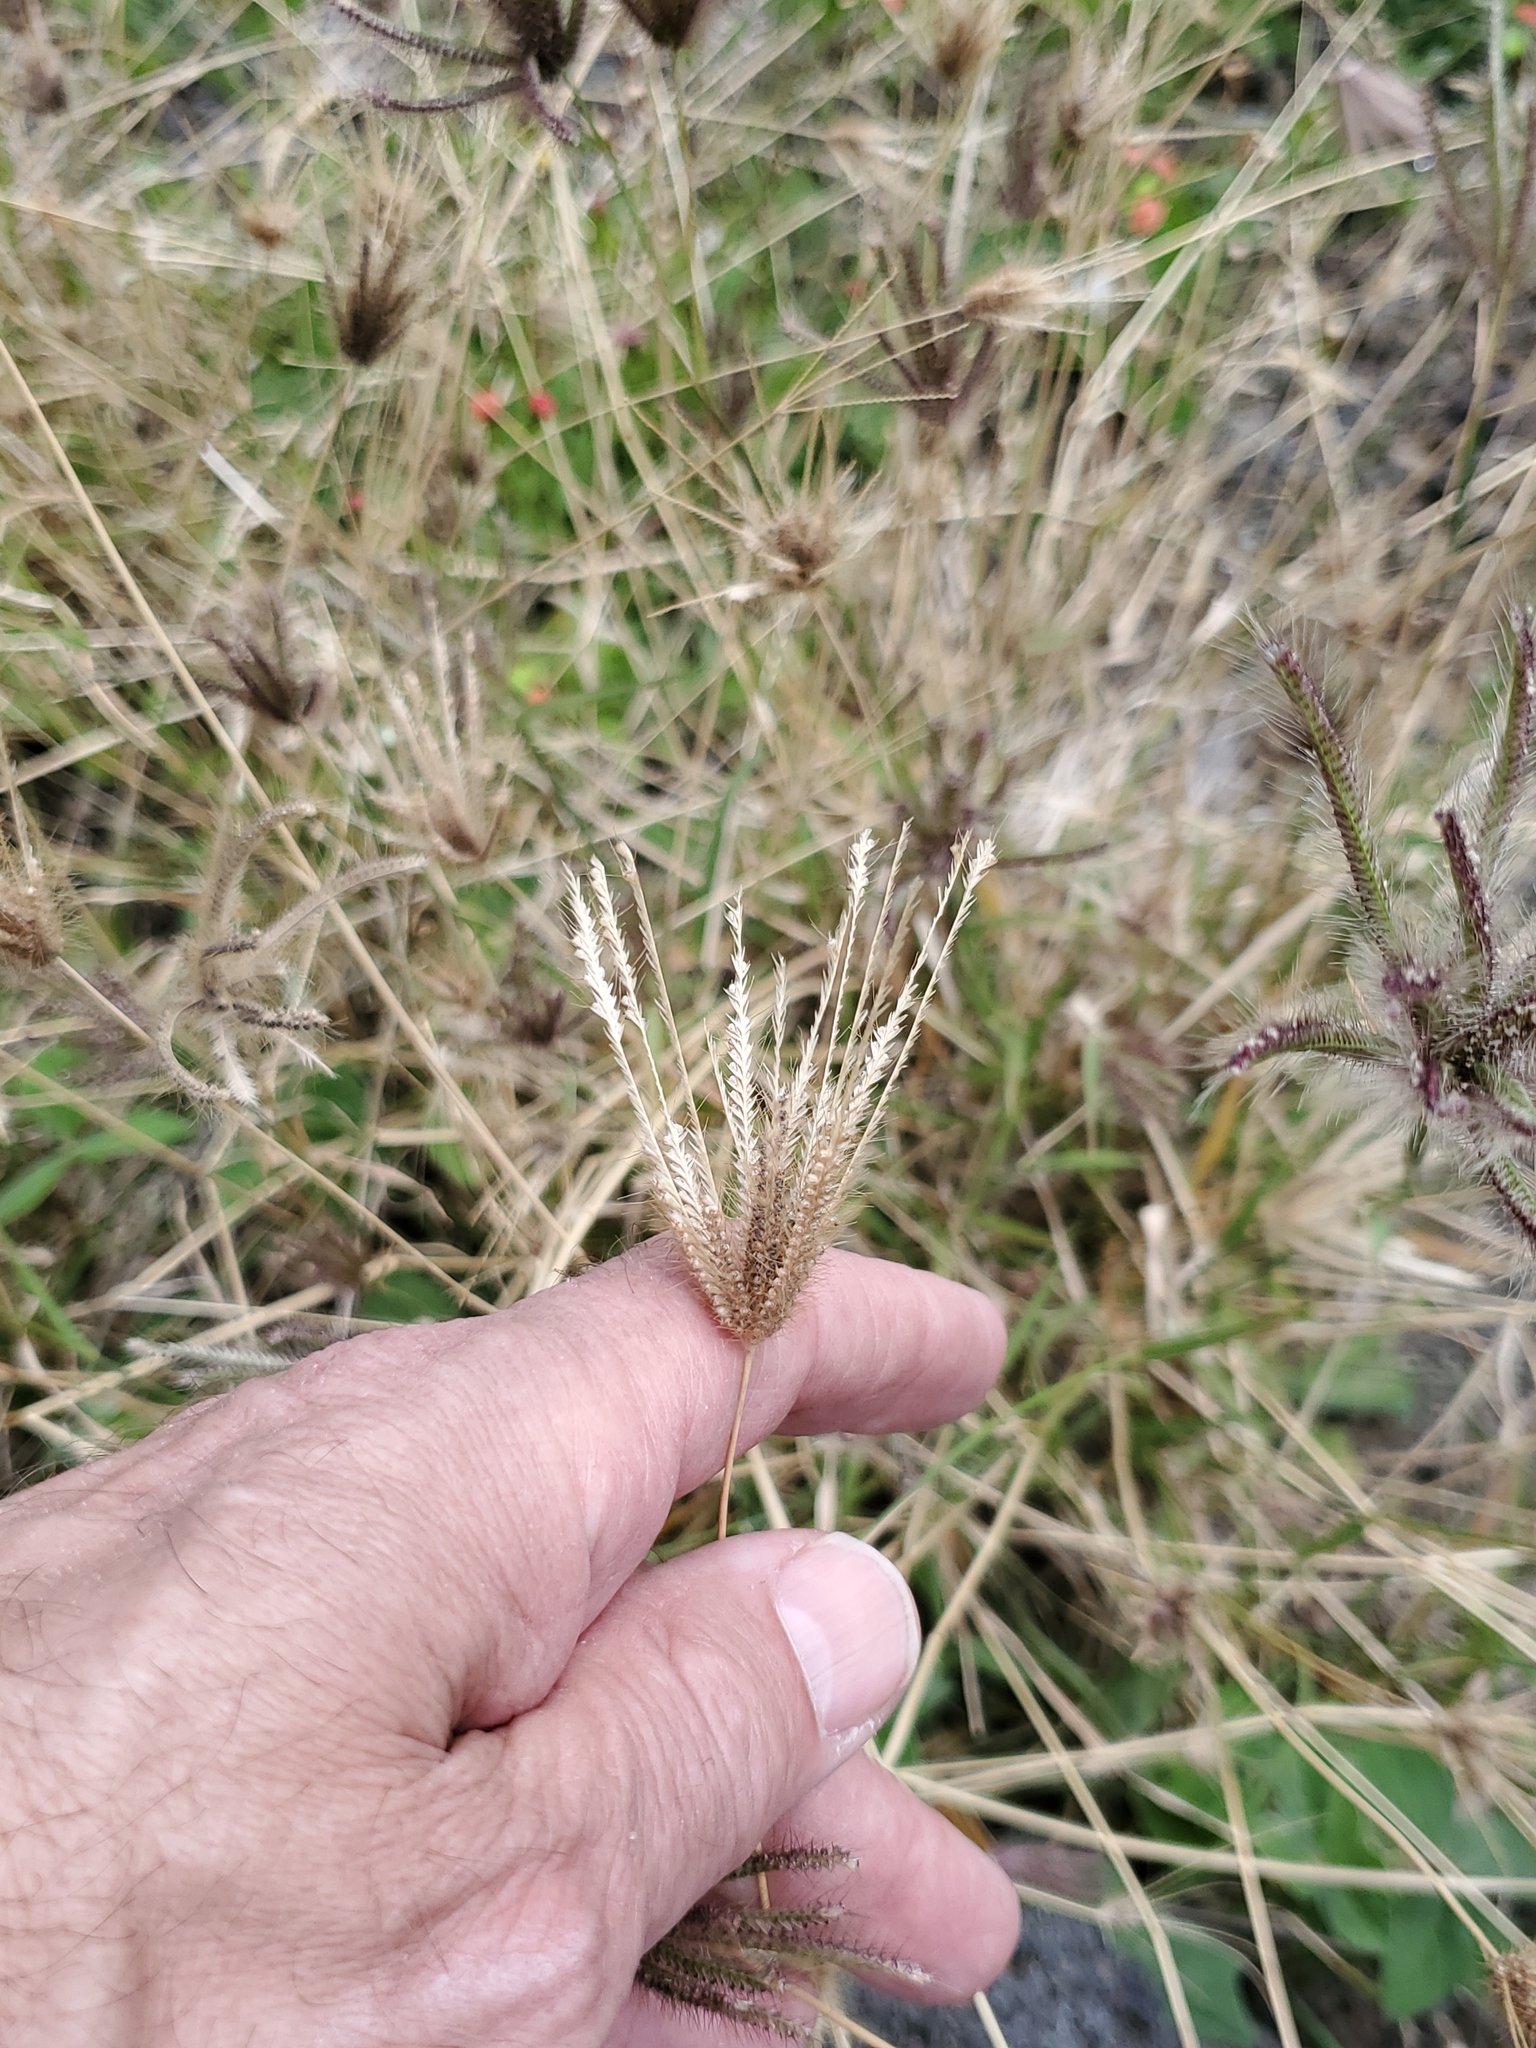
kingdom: Plantae
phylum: Tracheophyta
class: Liliopsida
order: Poales
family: Poaceae
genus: Chloris
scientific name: Chloris barbata
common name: Swollen fingergrass
